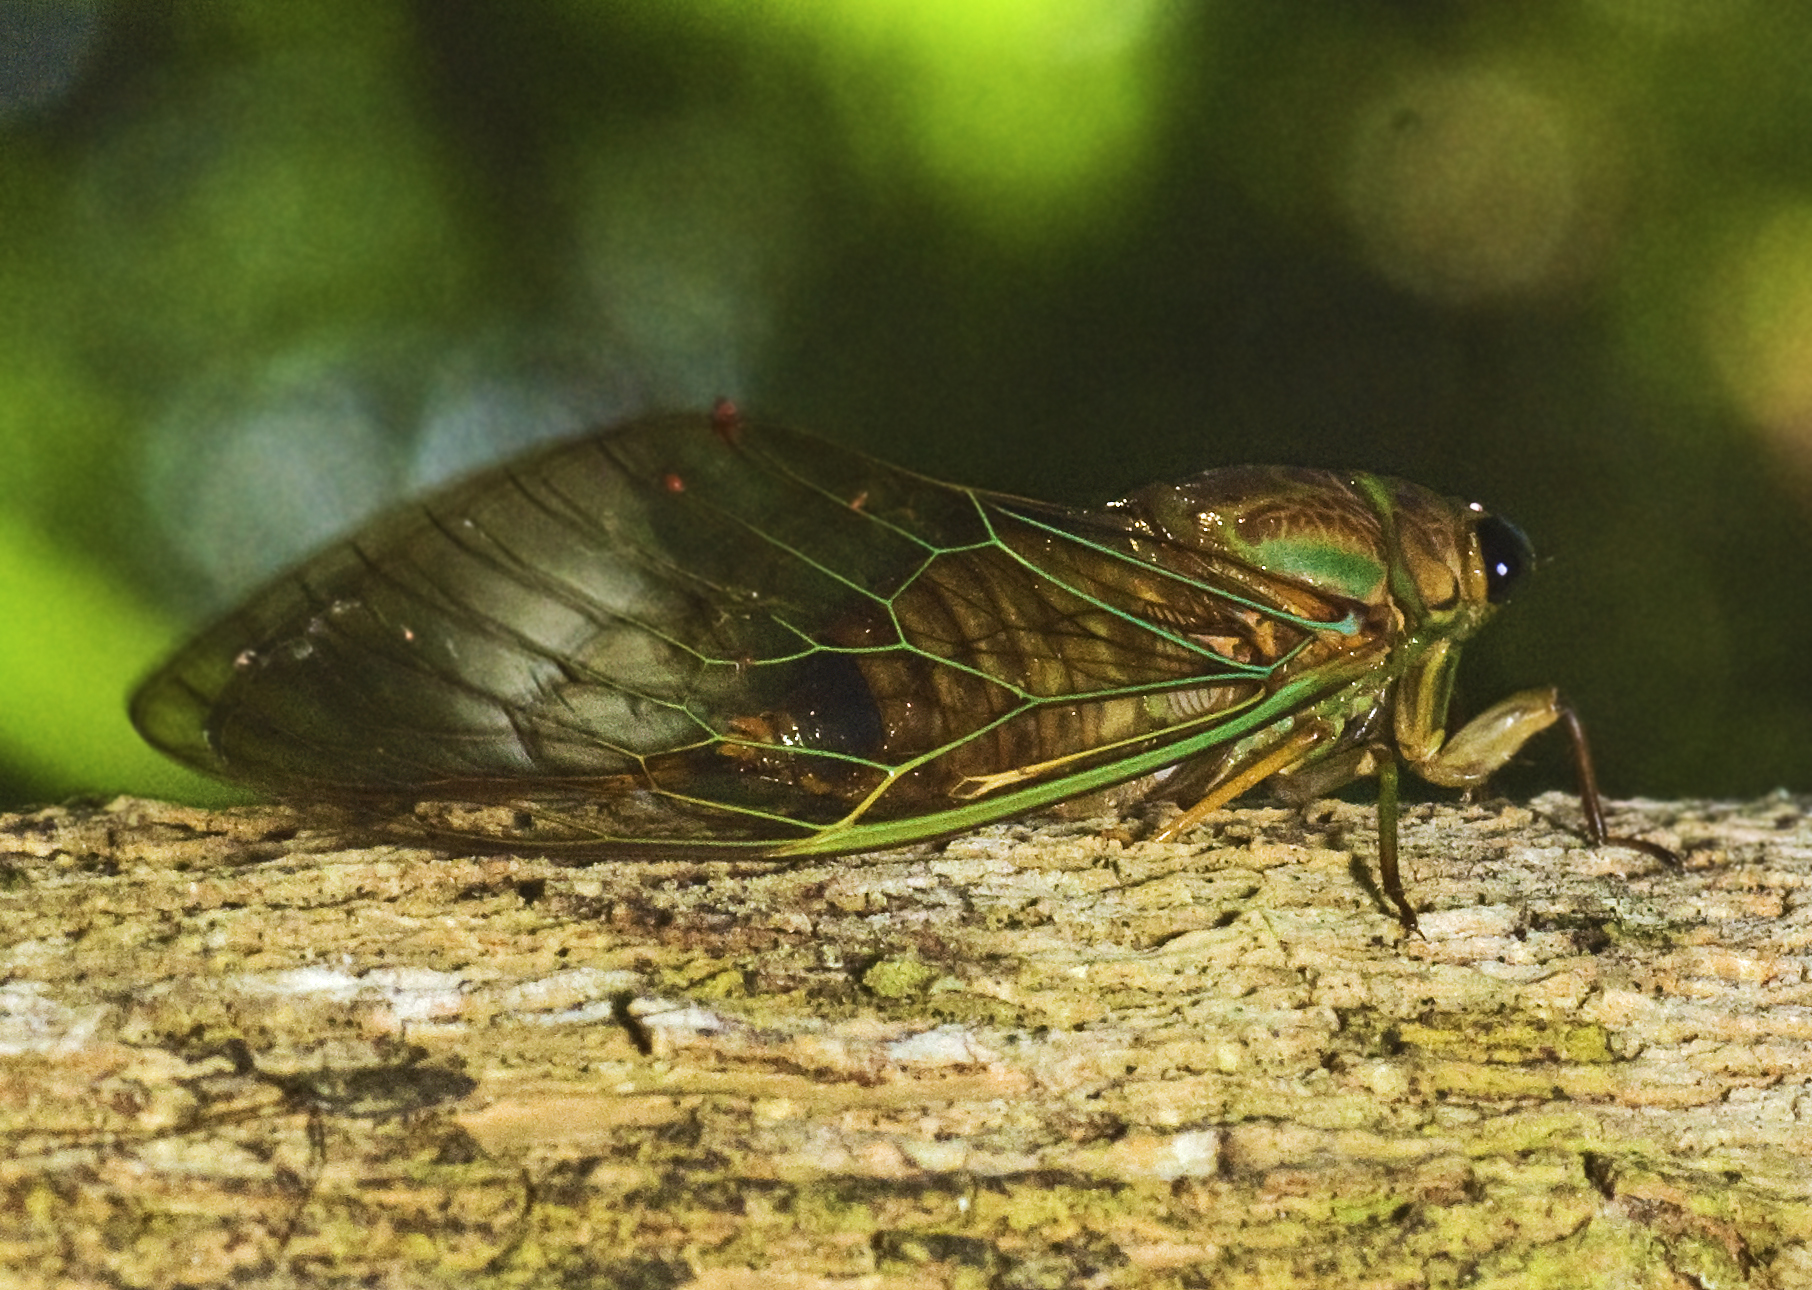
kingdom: Animalia
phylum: Arthropoda
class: Insecta
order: Hemiptera
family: Cicadidae
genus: Venustria
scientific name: Venustria superba
